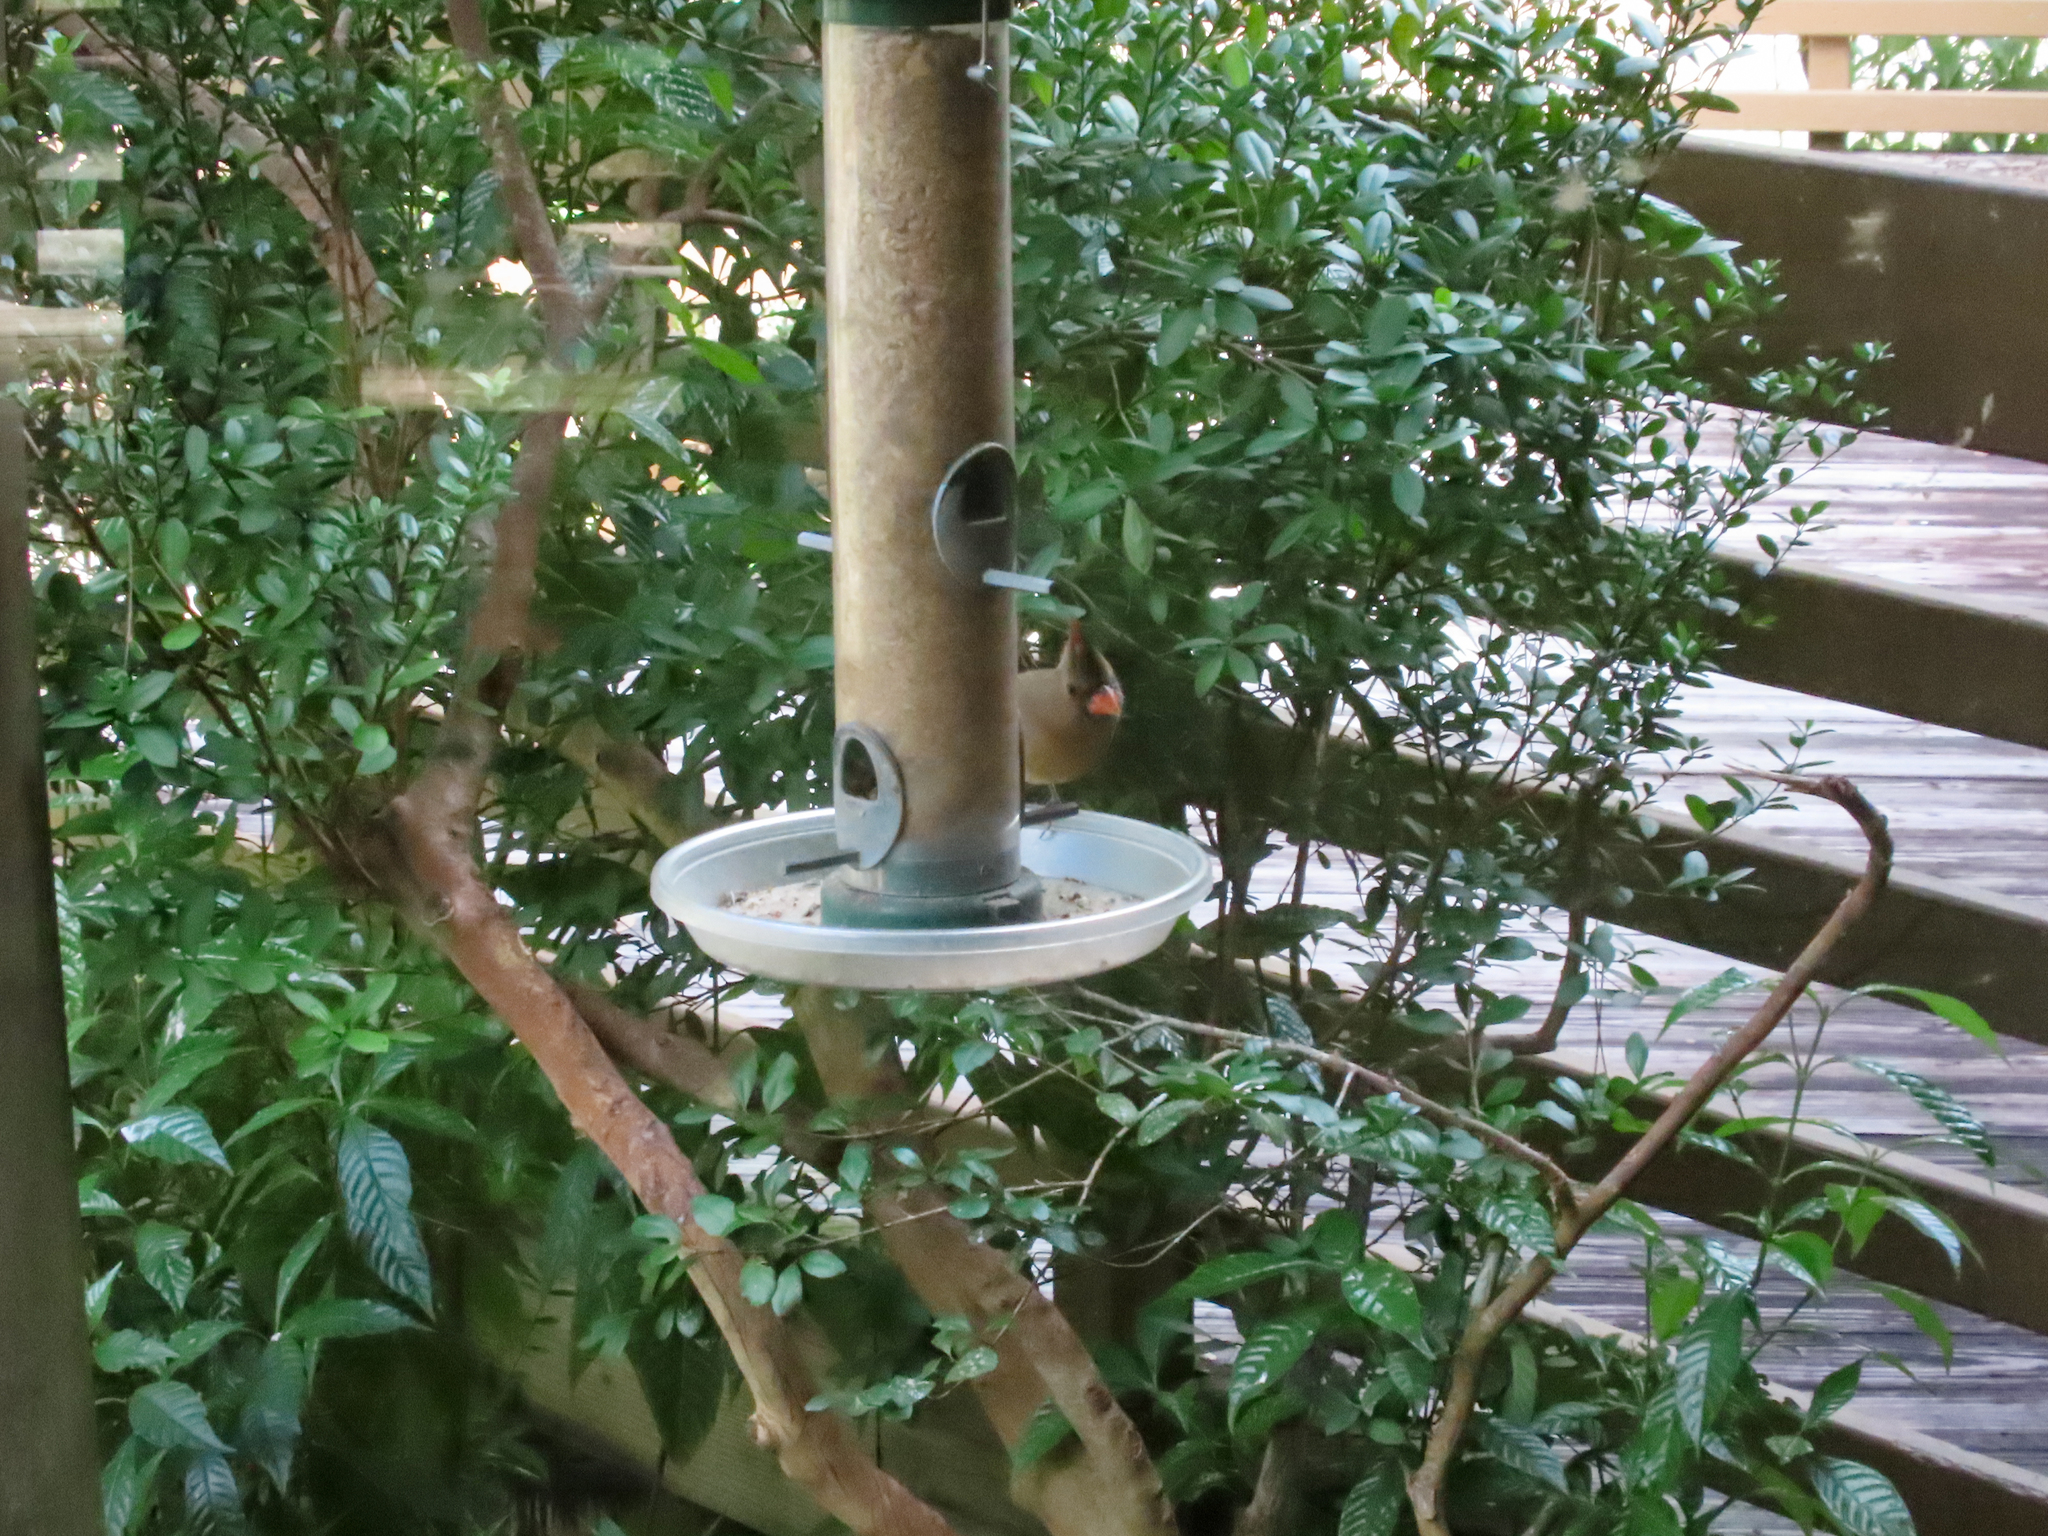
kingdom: Animalia
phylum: Chordata
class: Aves
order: Passeriformes
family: Cardinalidae
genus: Cardinalis
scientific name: Cardinalis cardinalis
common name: Northern cardinal
